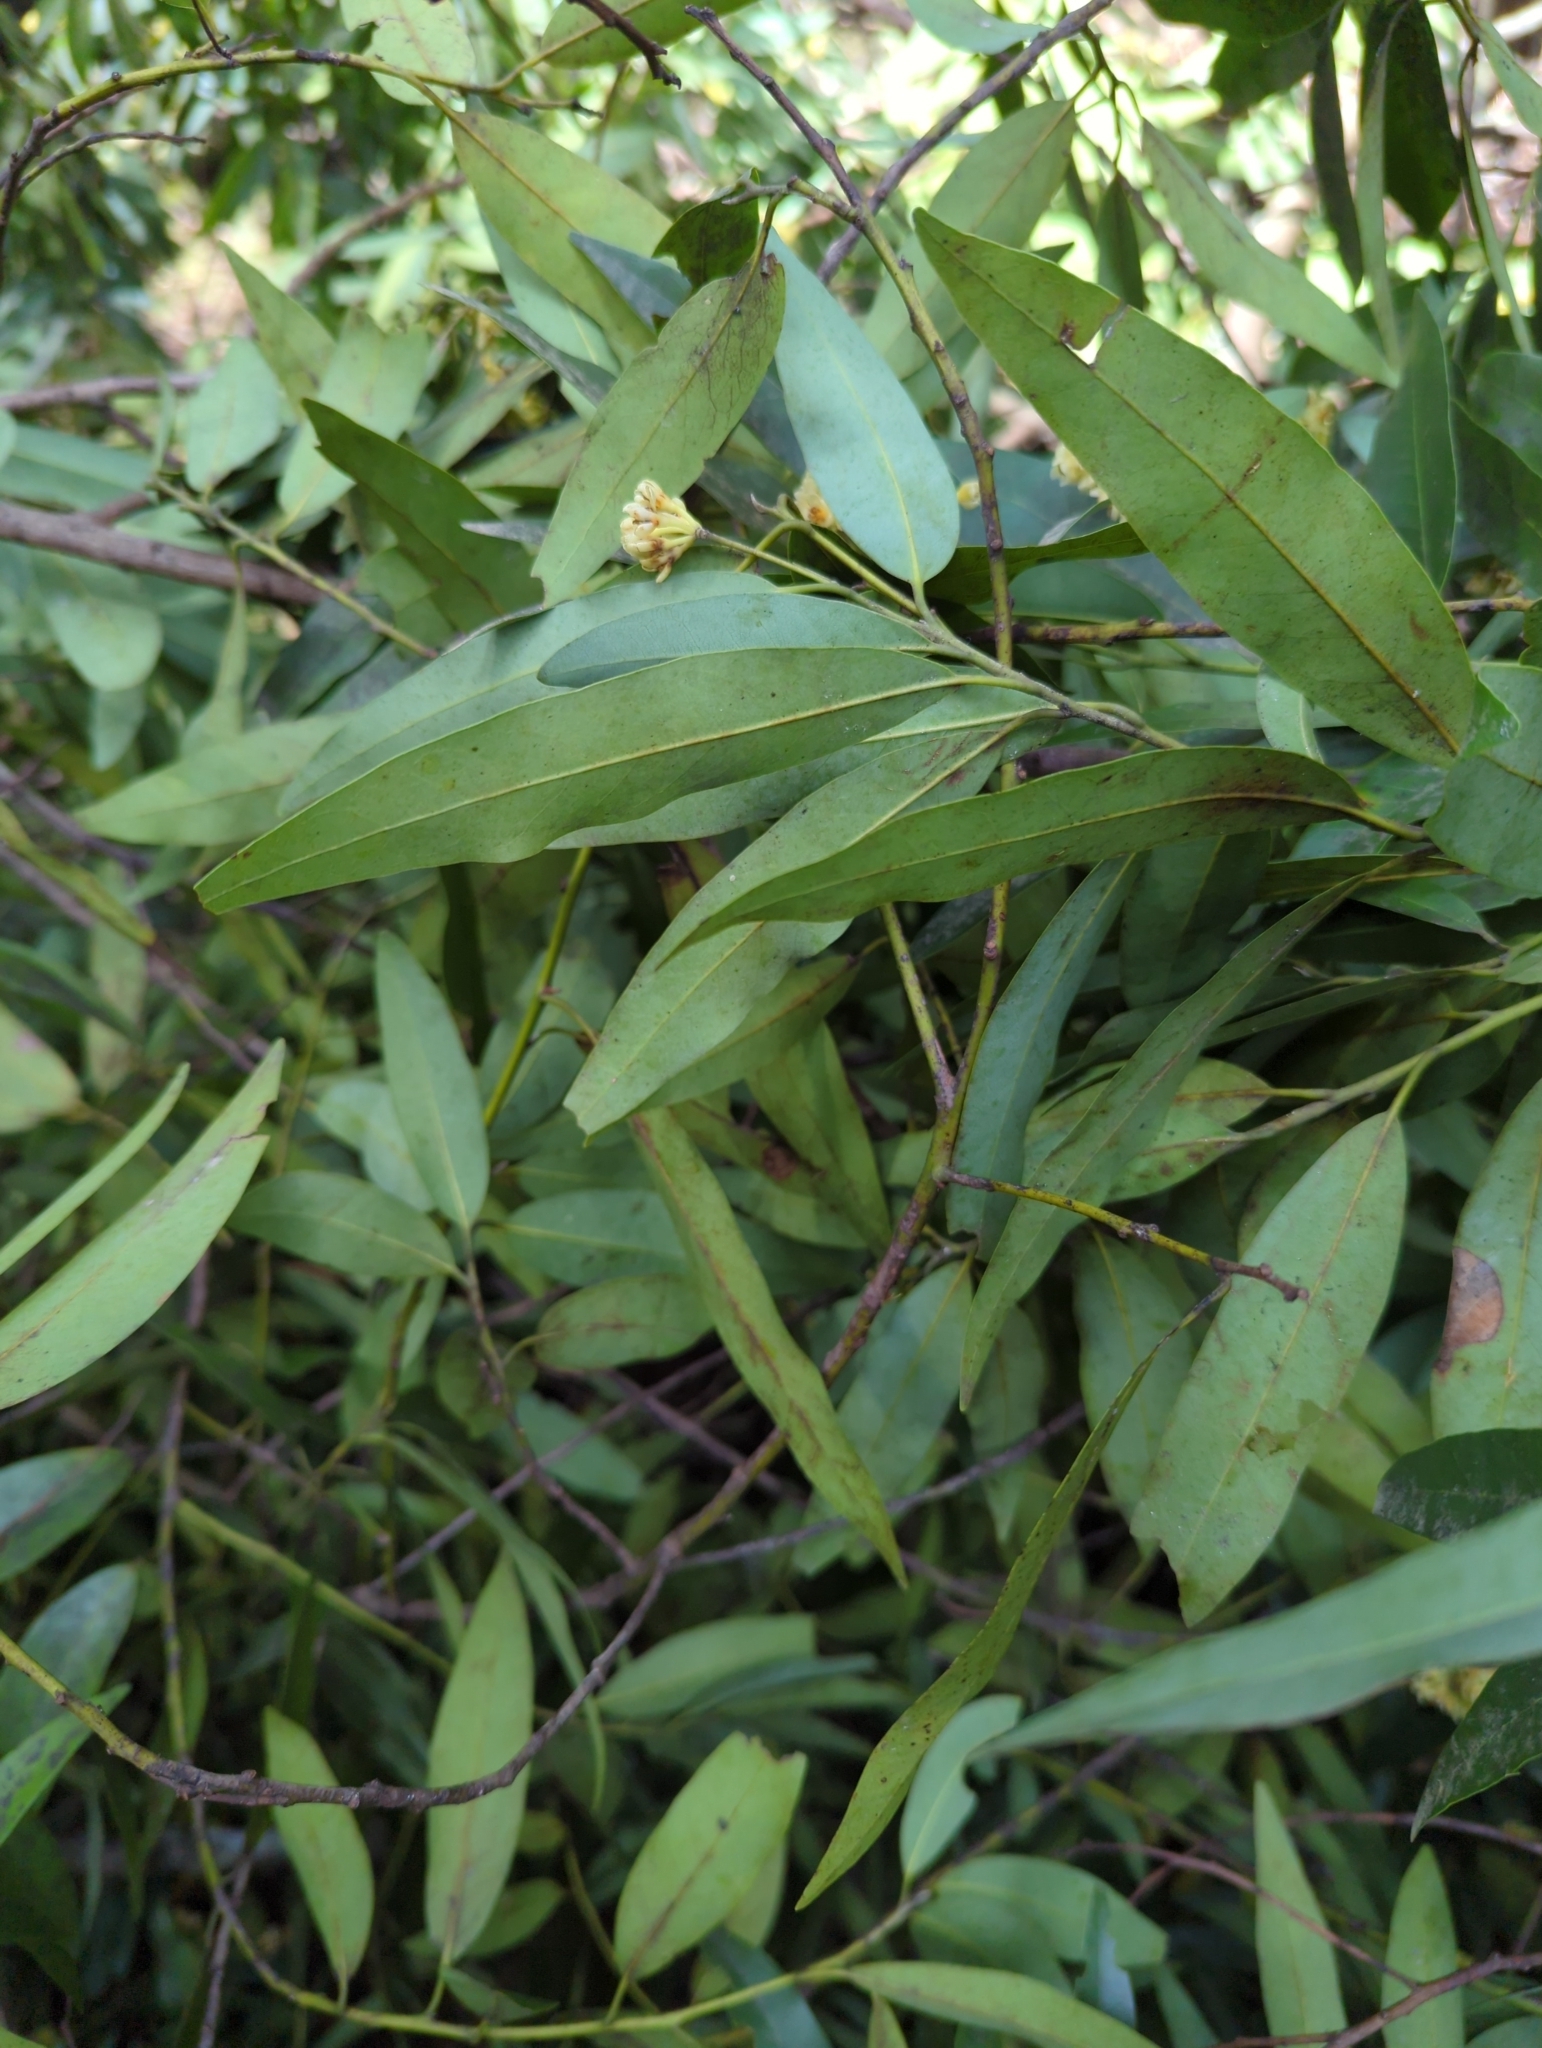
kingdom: Plantae
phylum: Tracheophyta
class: Magnoliopsida
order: Laurales
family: Lauraceae
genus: Umbellularia
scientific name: Umbellularia californica
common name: California bay
